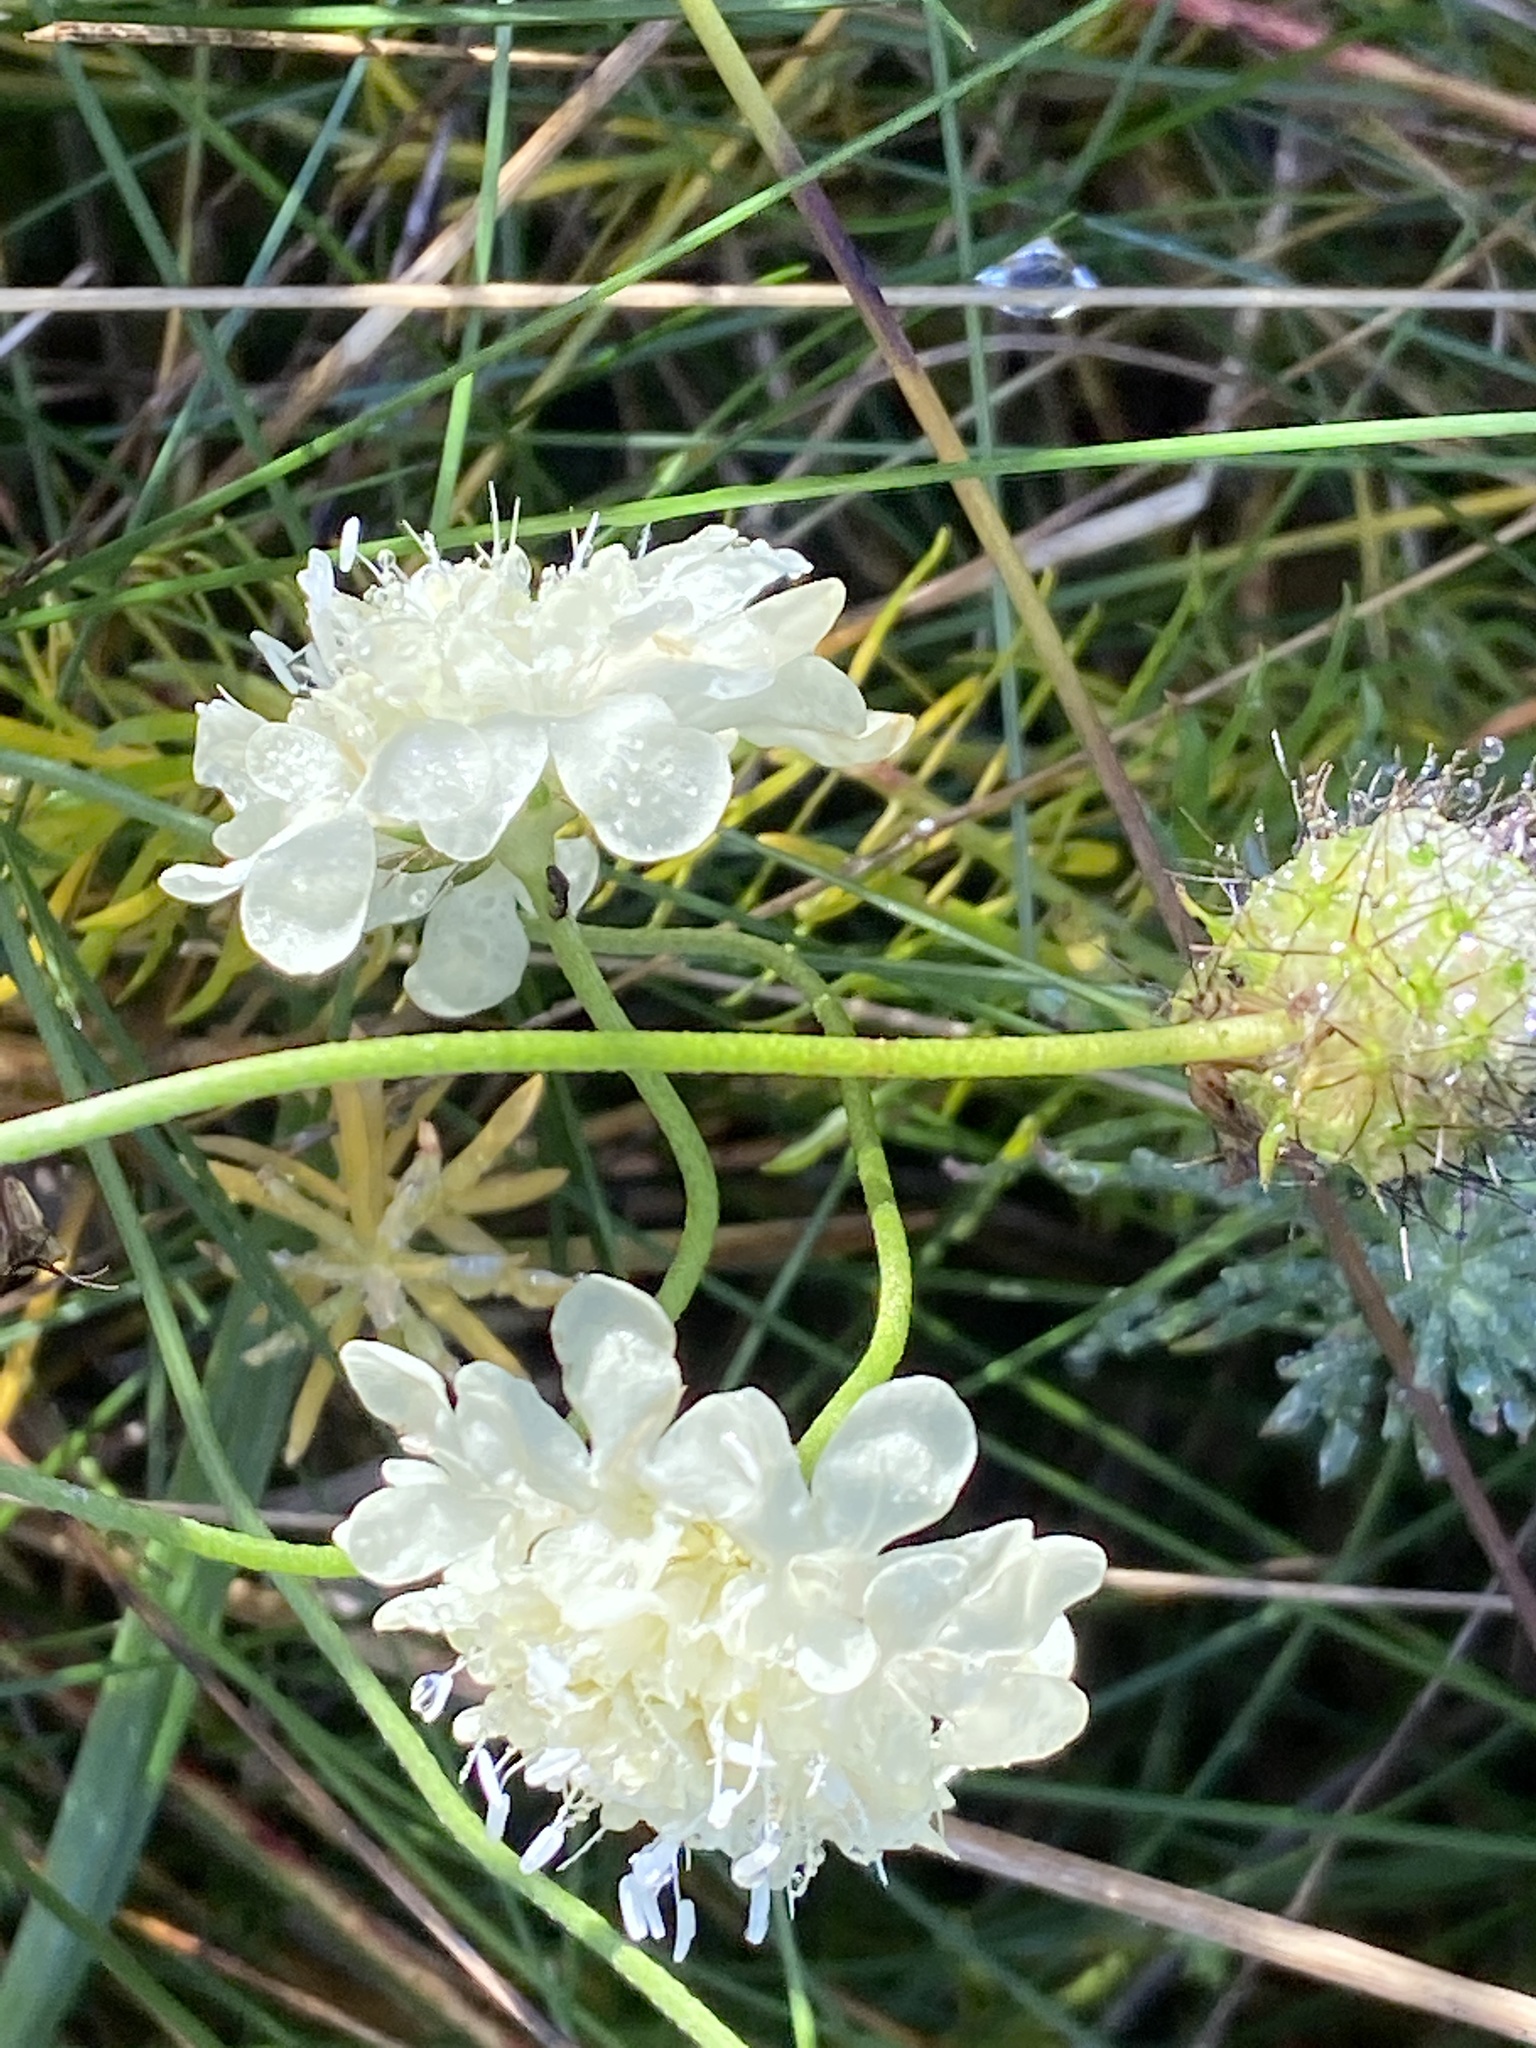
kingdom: Plantae
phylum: Tracheophyta
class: Magnoliopsida
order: Dipsacales
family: Caprifoliaceae
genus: Scabiosa
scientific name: Scabiosa ochroleuca
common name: Cream pincushions
